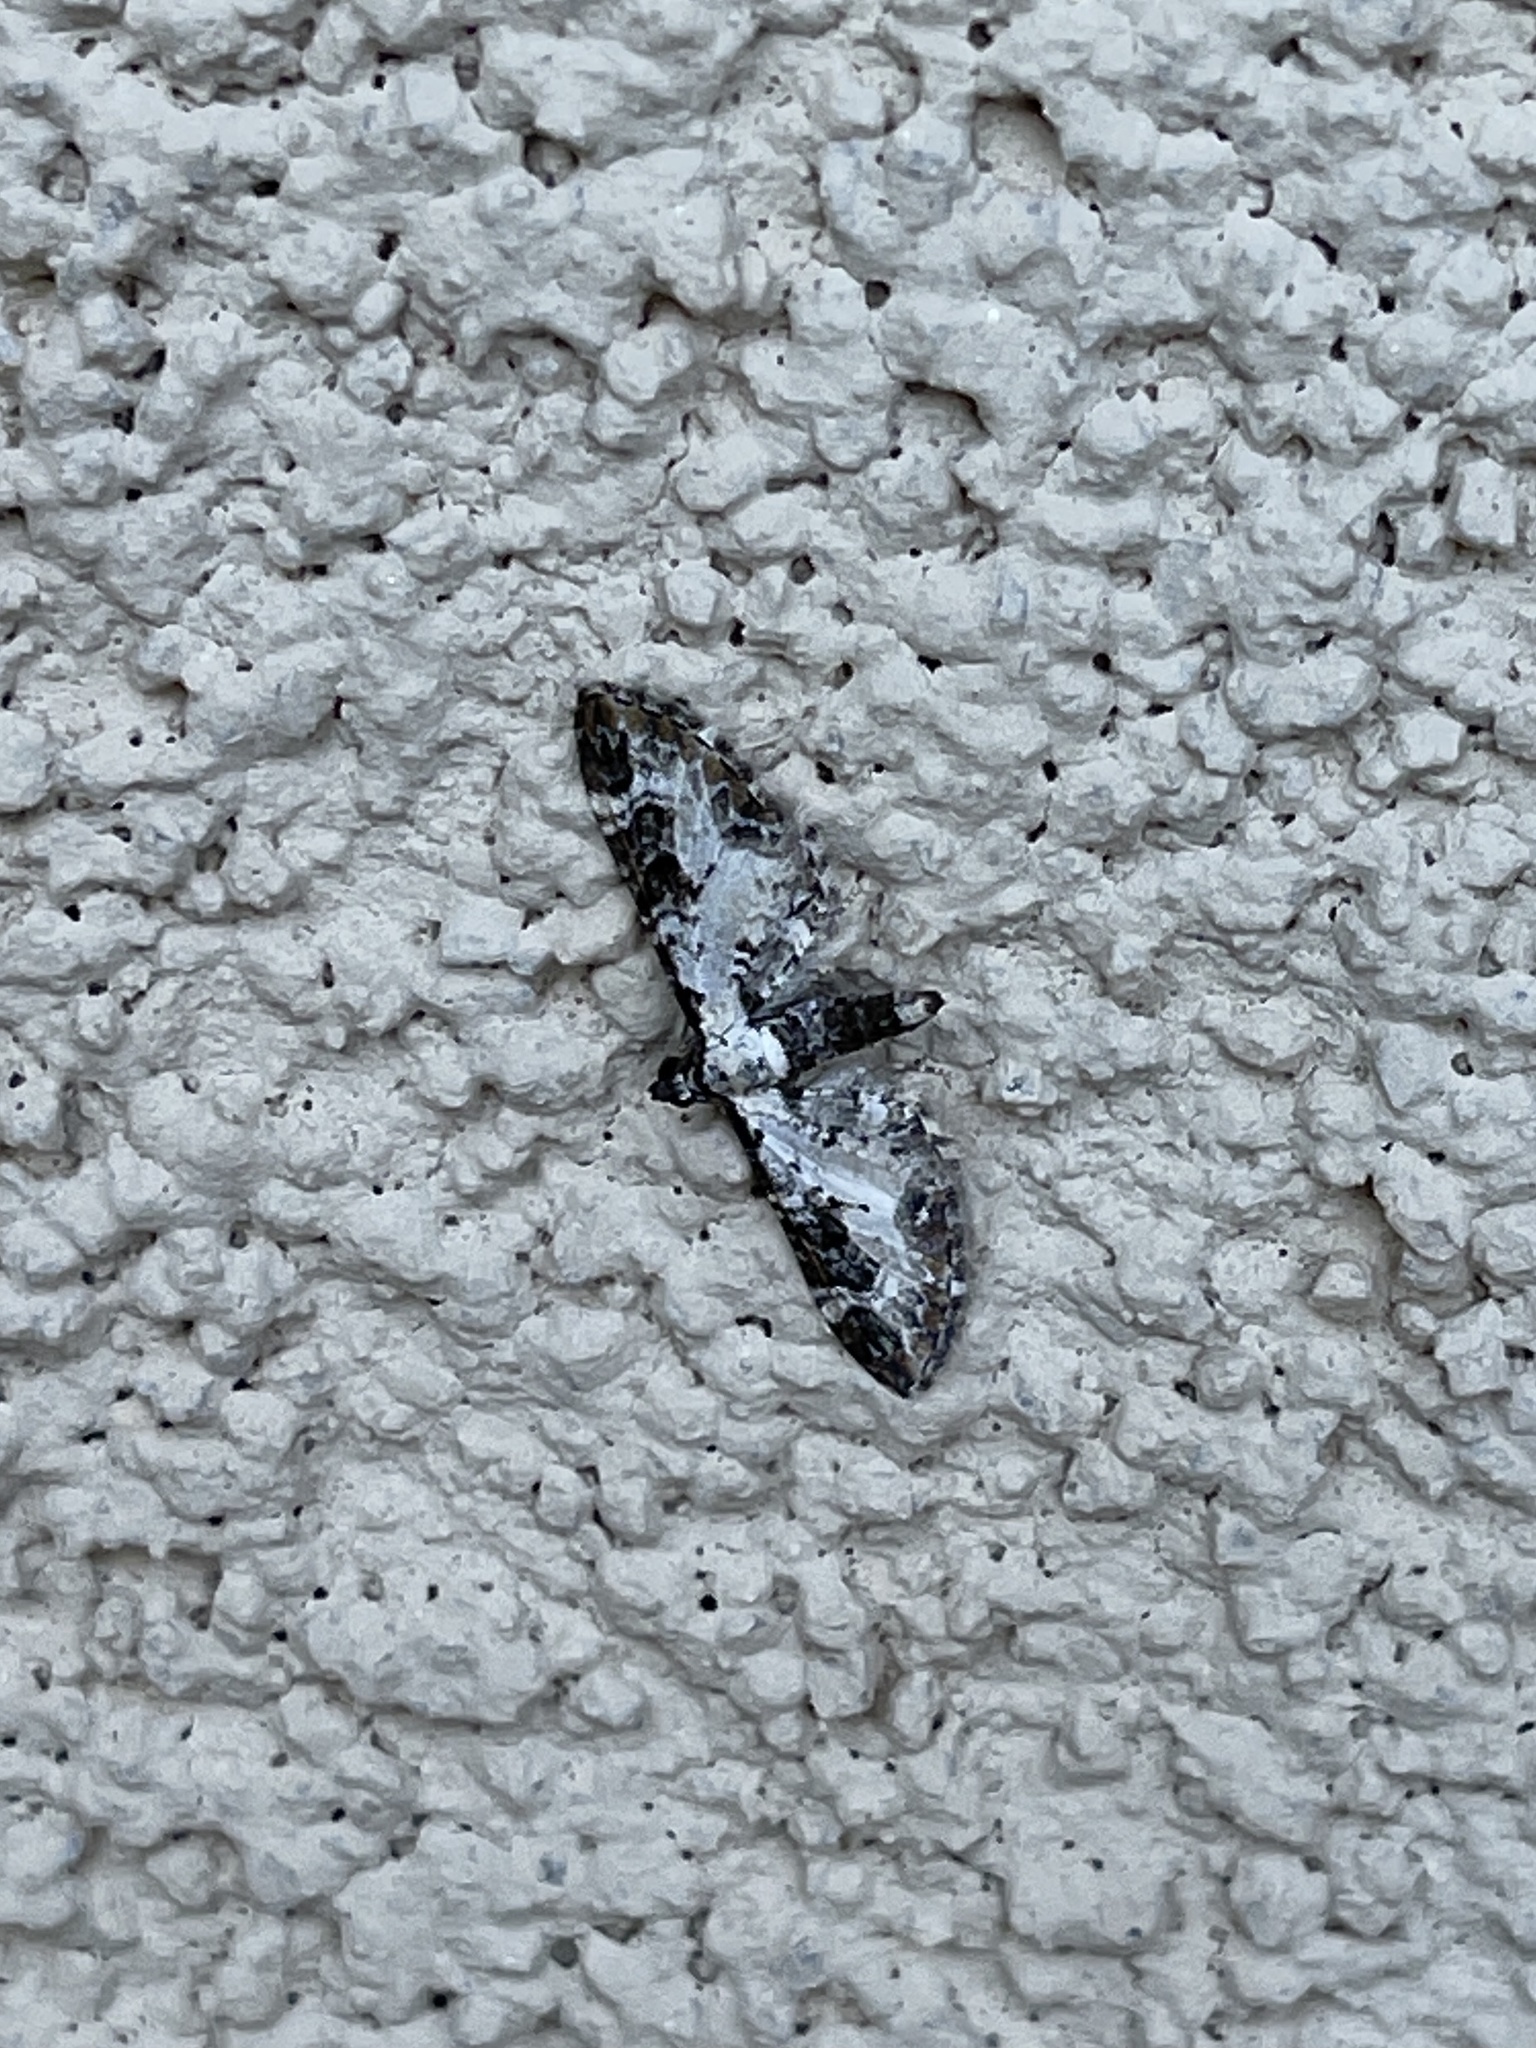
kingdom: Animalia
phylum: Arthropoda
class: Insecta
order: Lepidoptera
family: Geometridae
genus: Prorella
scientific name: Prorella gypsata
